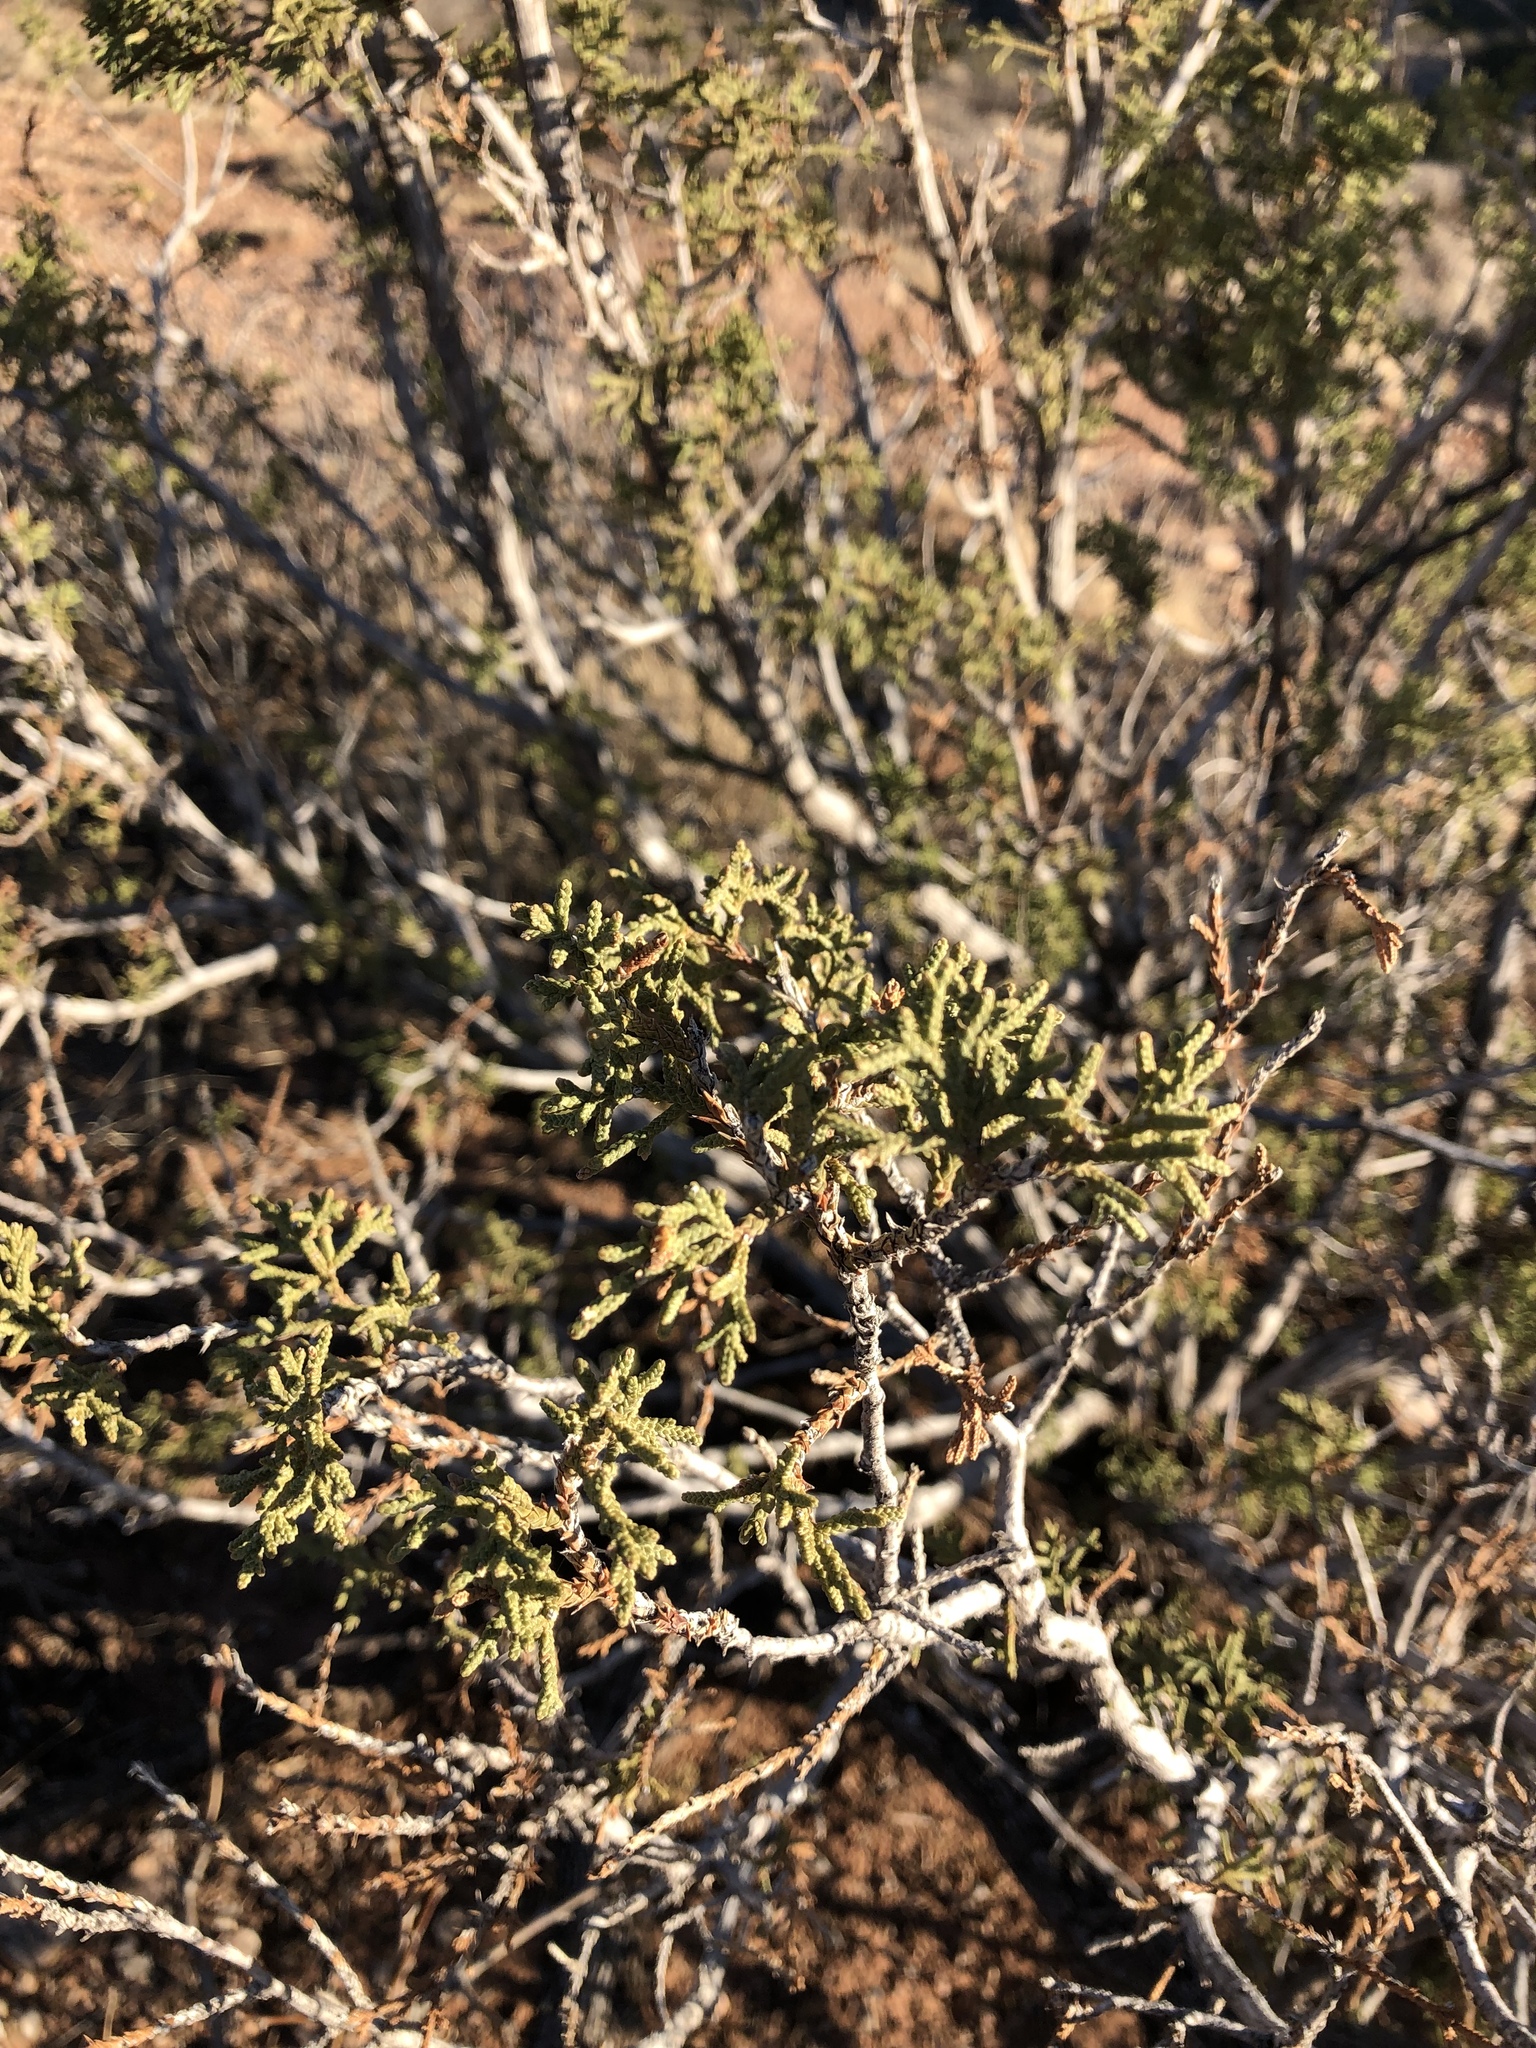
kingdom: Plantae
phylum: Tracheophyta
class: Pinopsida
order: Pinales
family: Cupressaceae
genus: Juniperus
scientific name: Juniperus monosperma
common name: One-seed juniper
